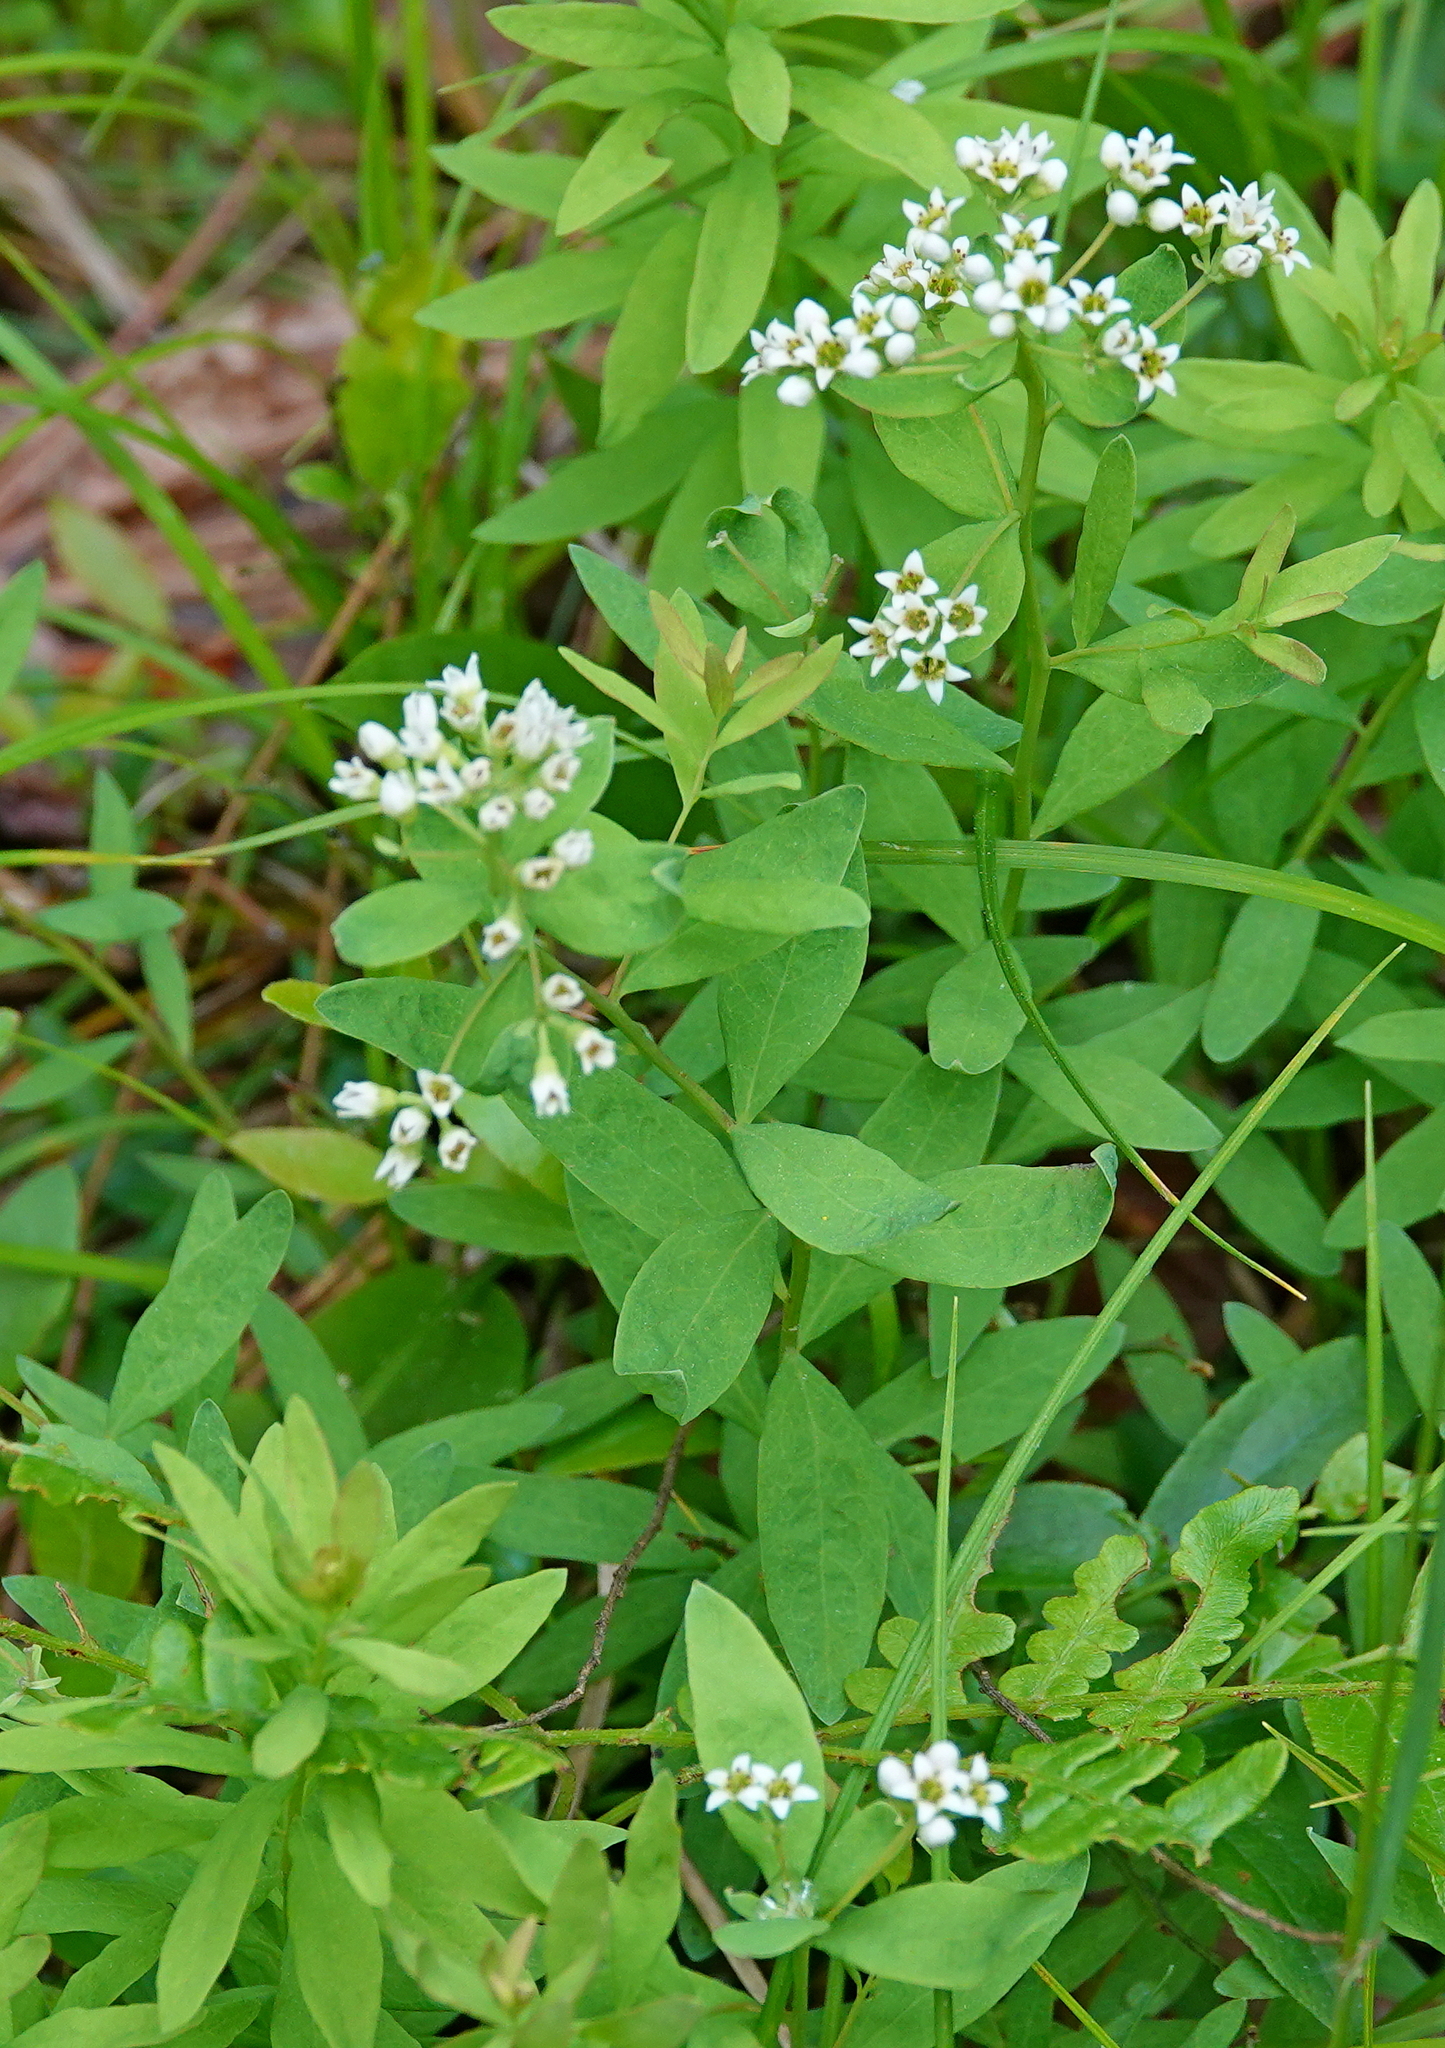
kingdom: Plantae
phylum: Tracheophyta
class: Magnoliopsida
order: Santalales
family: Comandraceae
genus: Comandra
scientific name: Comandra umbellata
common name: Bastard toadflax
